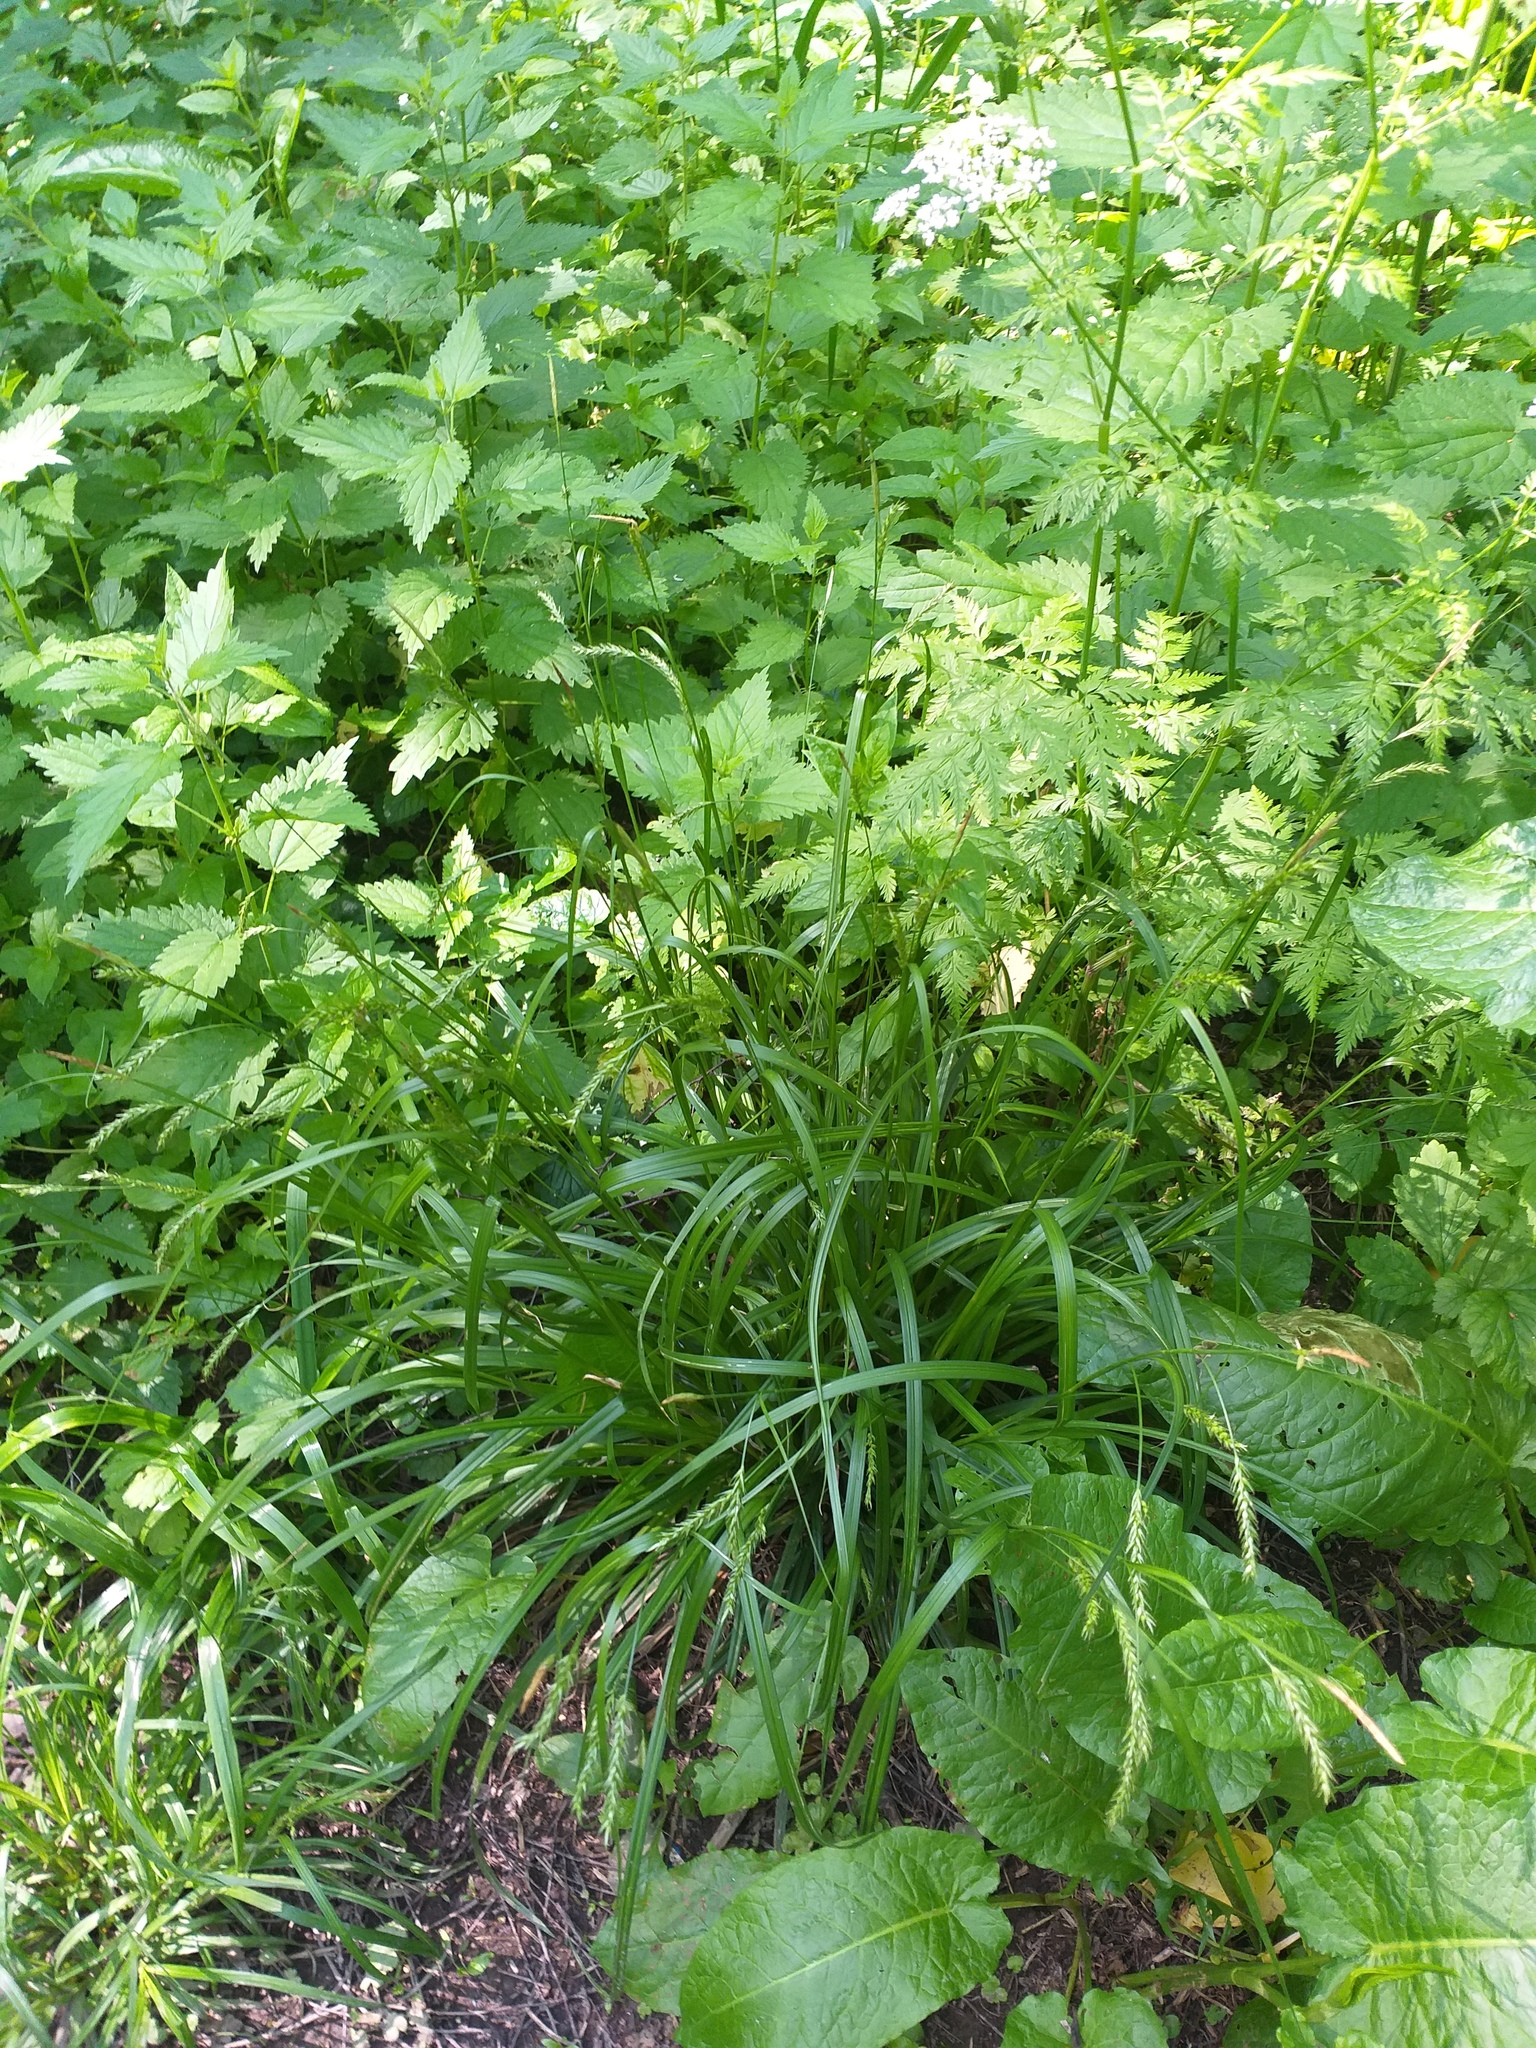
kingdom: Plantae
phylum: Tracheophyta
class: Liliopsida
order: Poales
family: Cyperaceae
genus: Carex
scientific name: Carex sylvatica
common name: Wood-sedge
